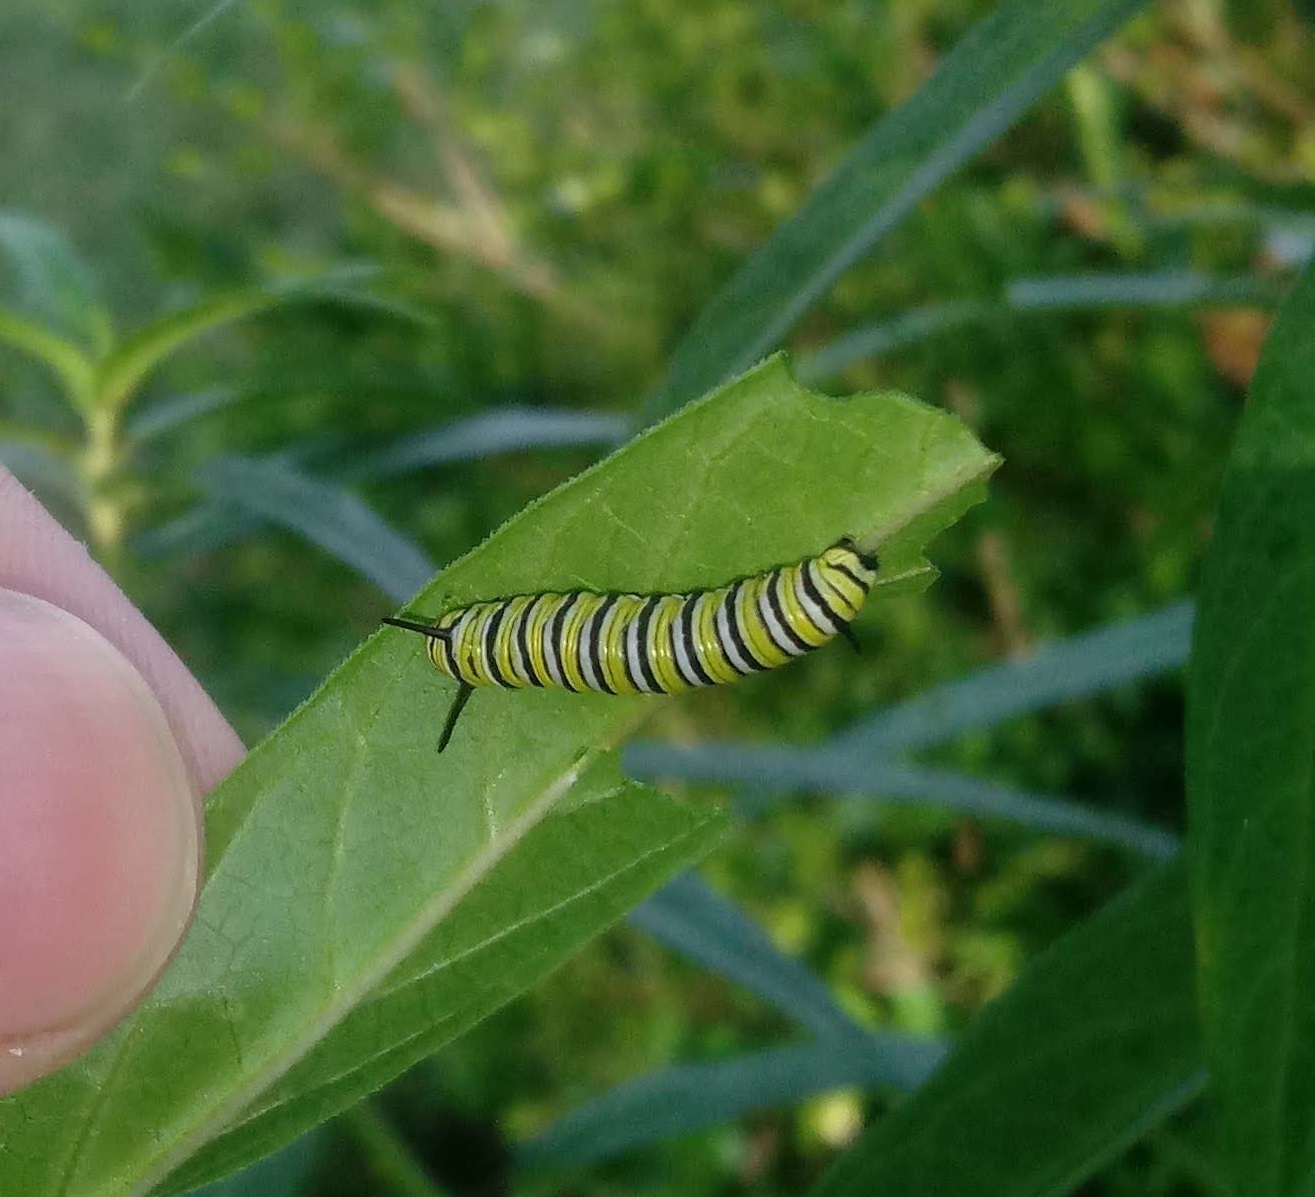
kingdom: Animalia
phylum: Arthropoda
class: Insecta
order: Lepidoptera
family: Nymphalidae
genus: Danaus
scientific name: Danaus plexippus
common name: Monarch
